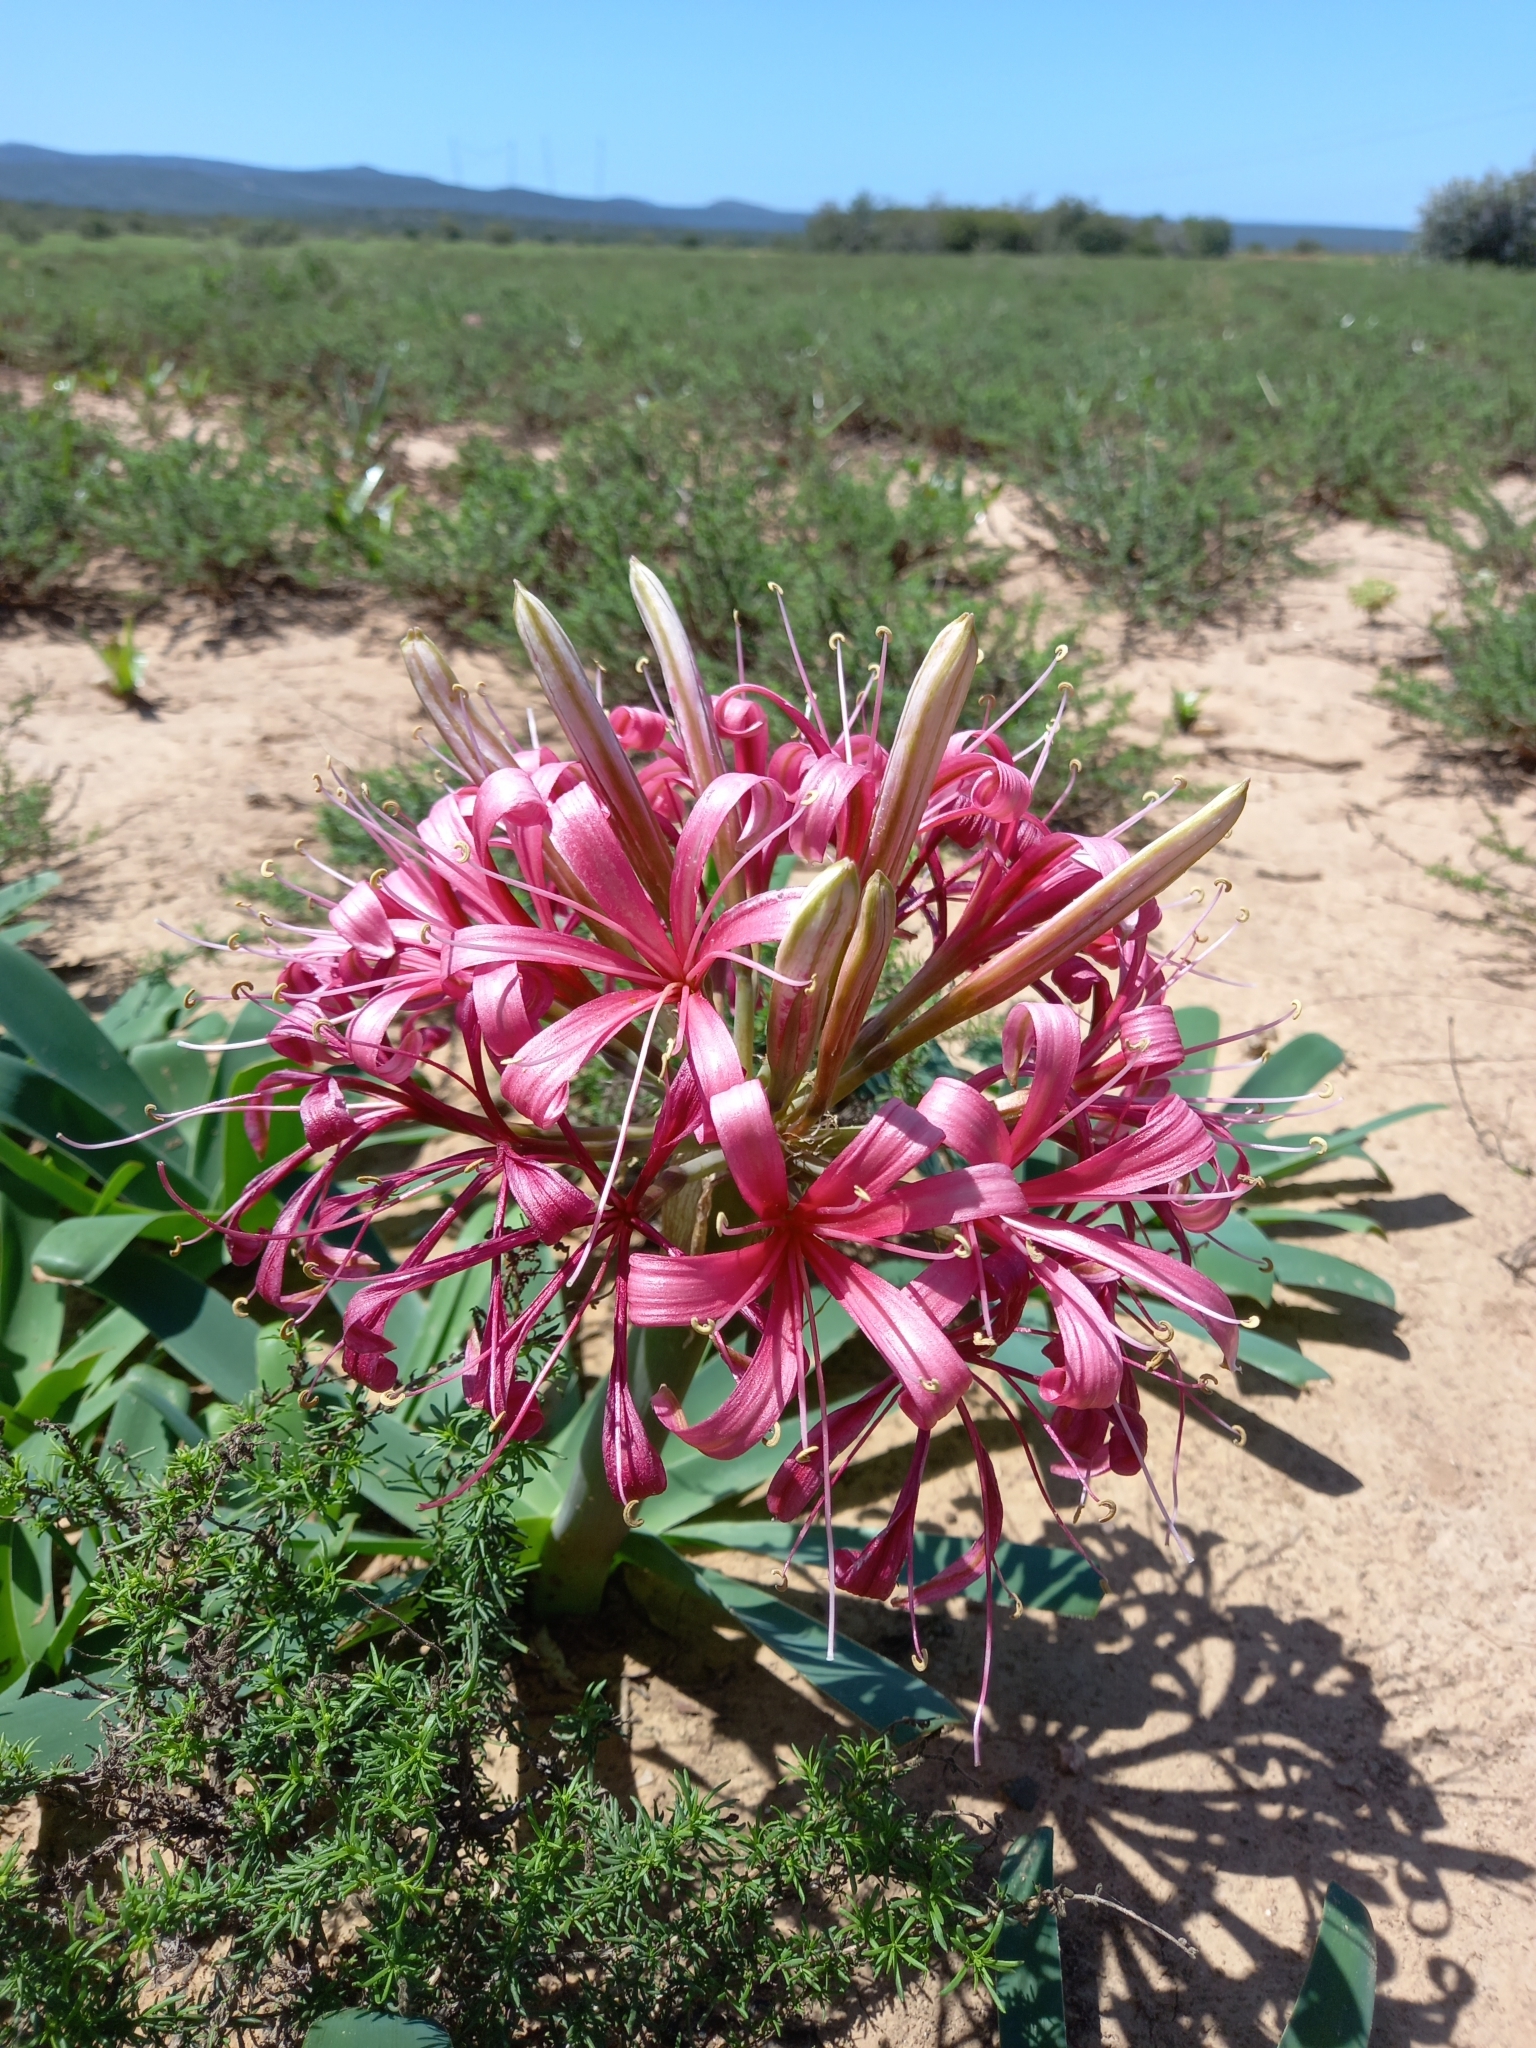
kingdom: Plantae
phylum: Tracheophyta
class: Liliopsida
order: Asparagales
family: Amaryllidaceae
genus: Ammocharis
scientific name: Ammocharis coranica
